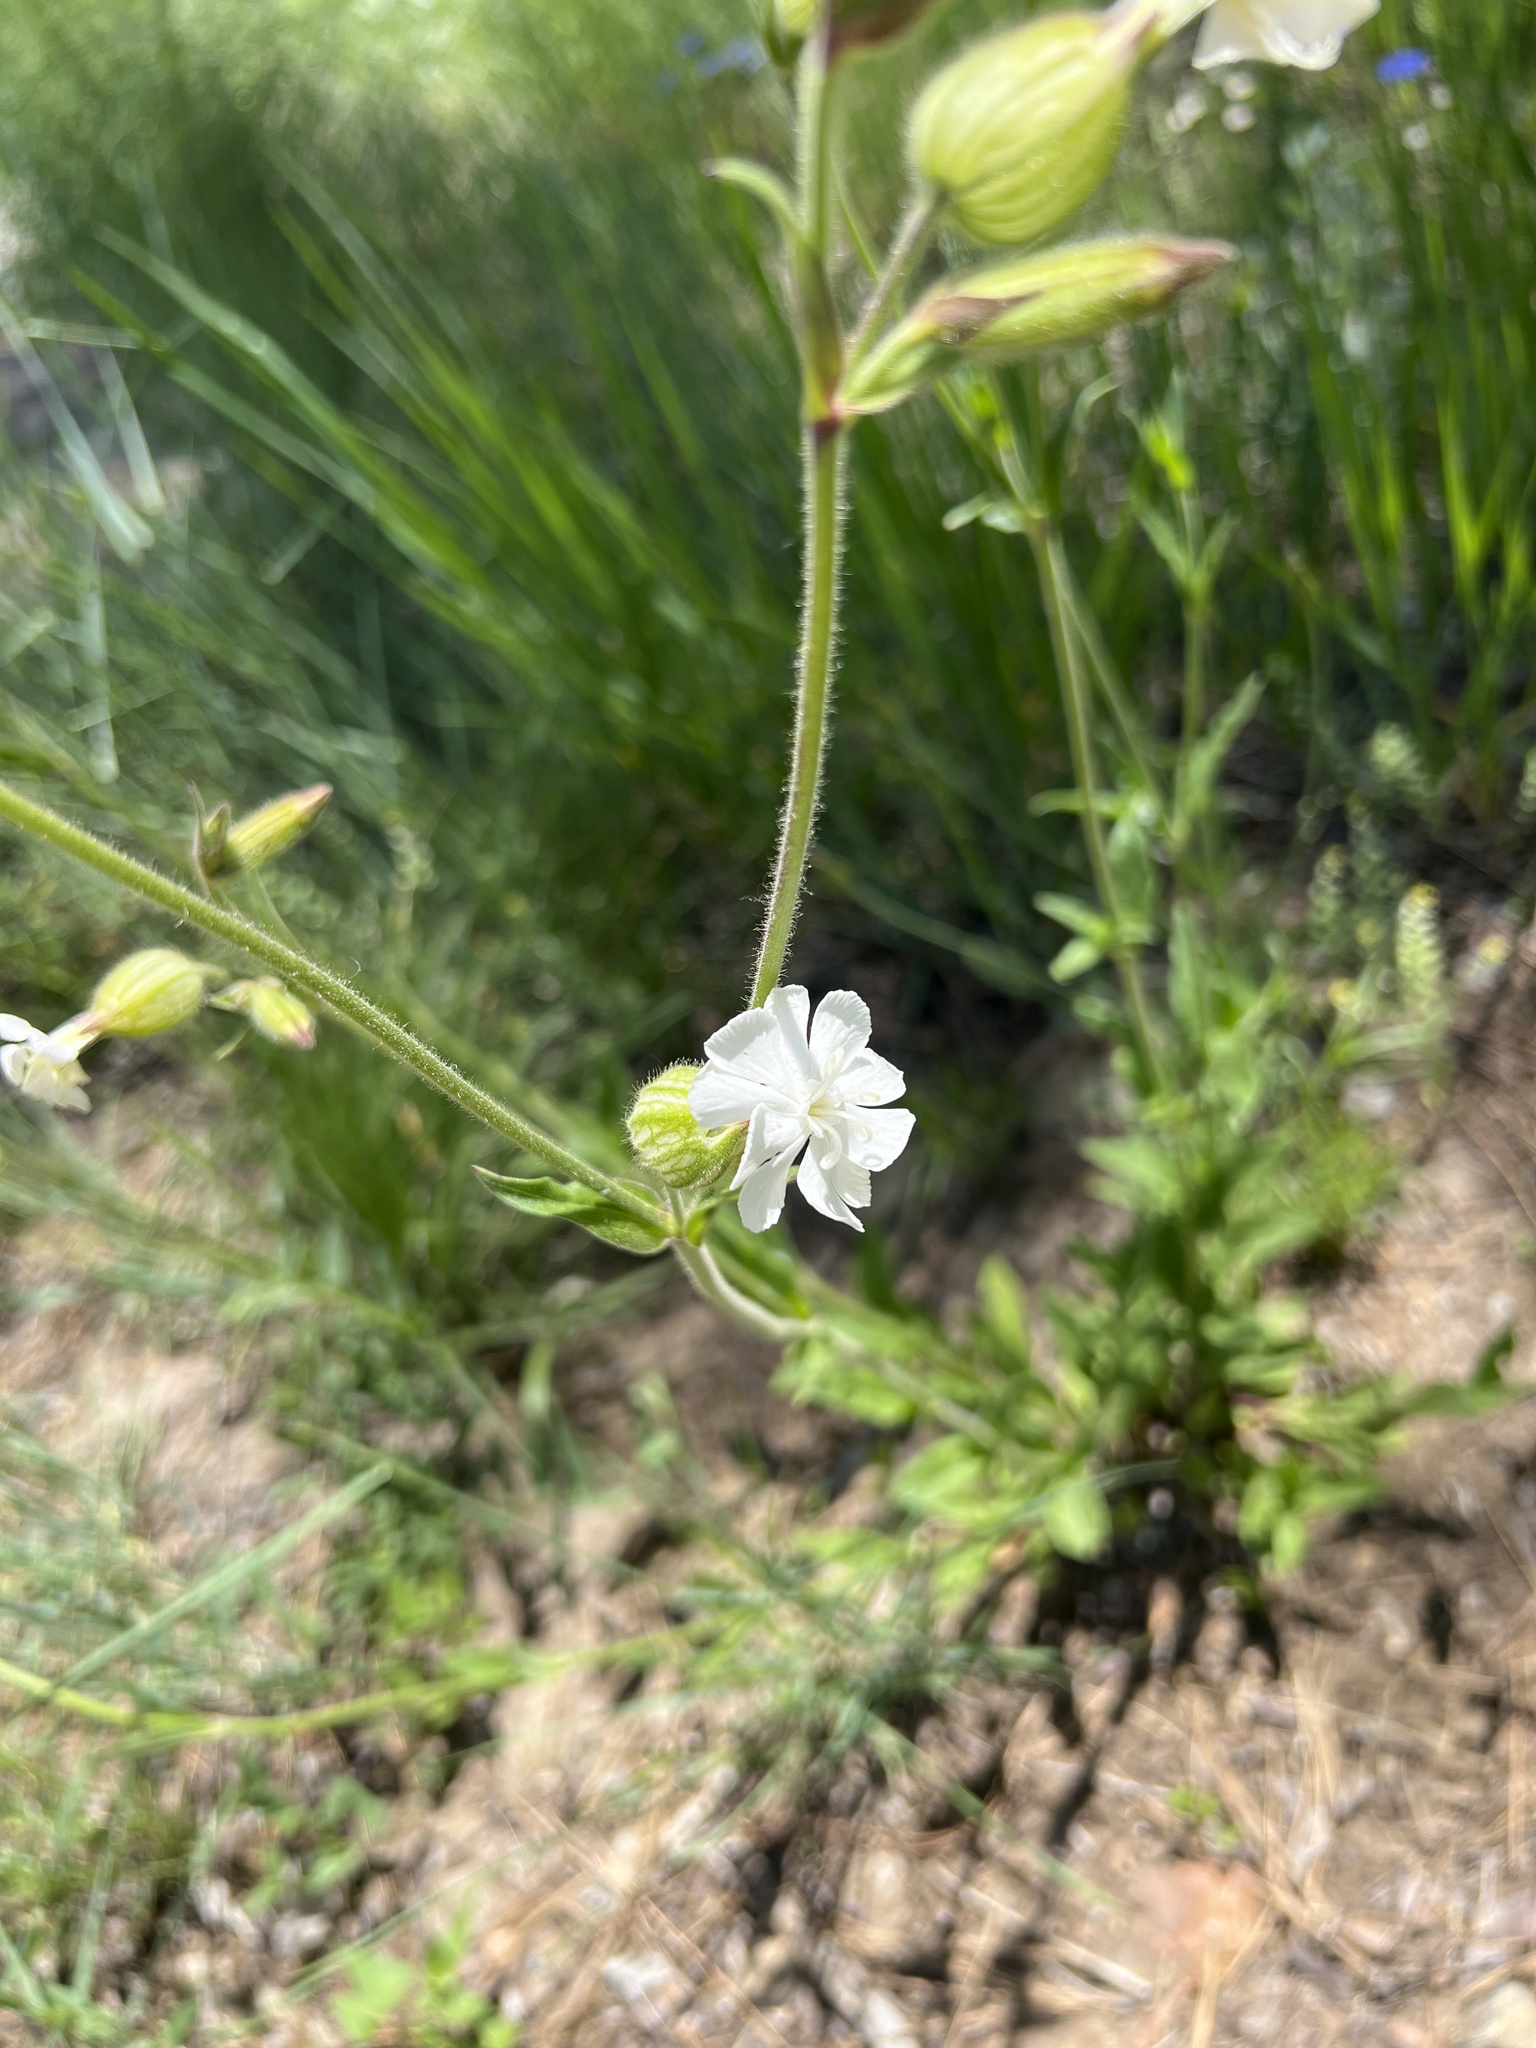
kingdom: Plantae
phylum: Tracheophyta
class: Magnoliopsida
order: Caryophyllales
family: Caryophyllaceae
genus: Silene
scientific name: Silene latifolia
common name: White campion
